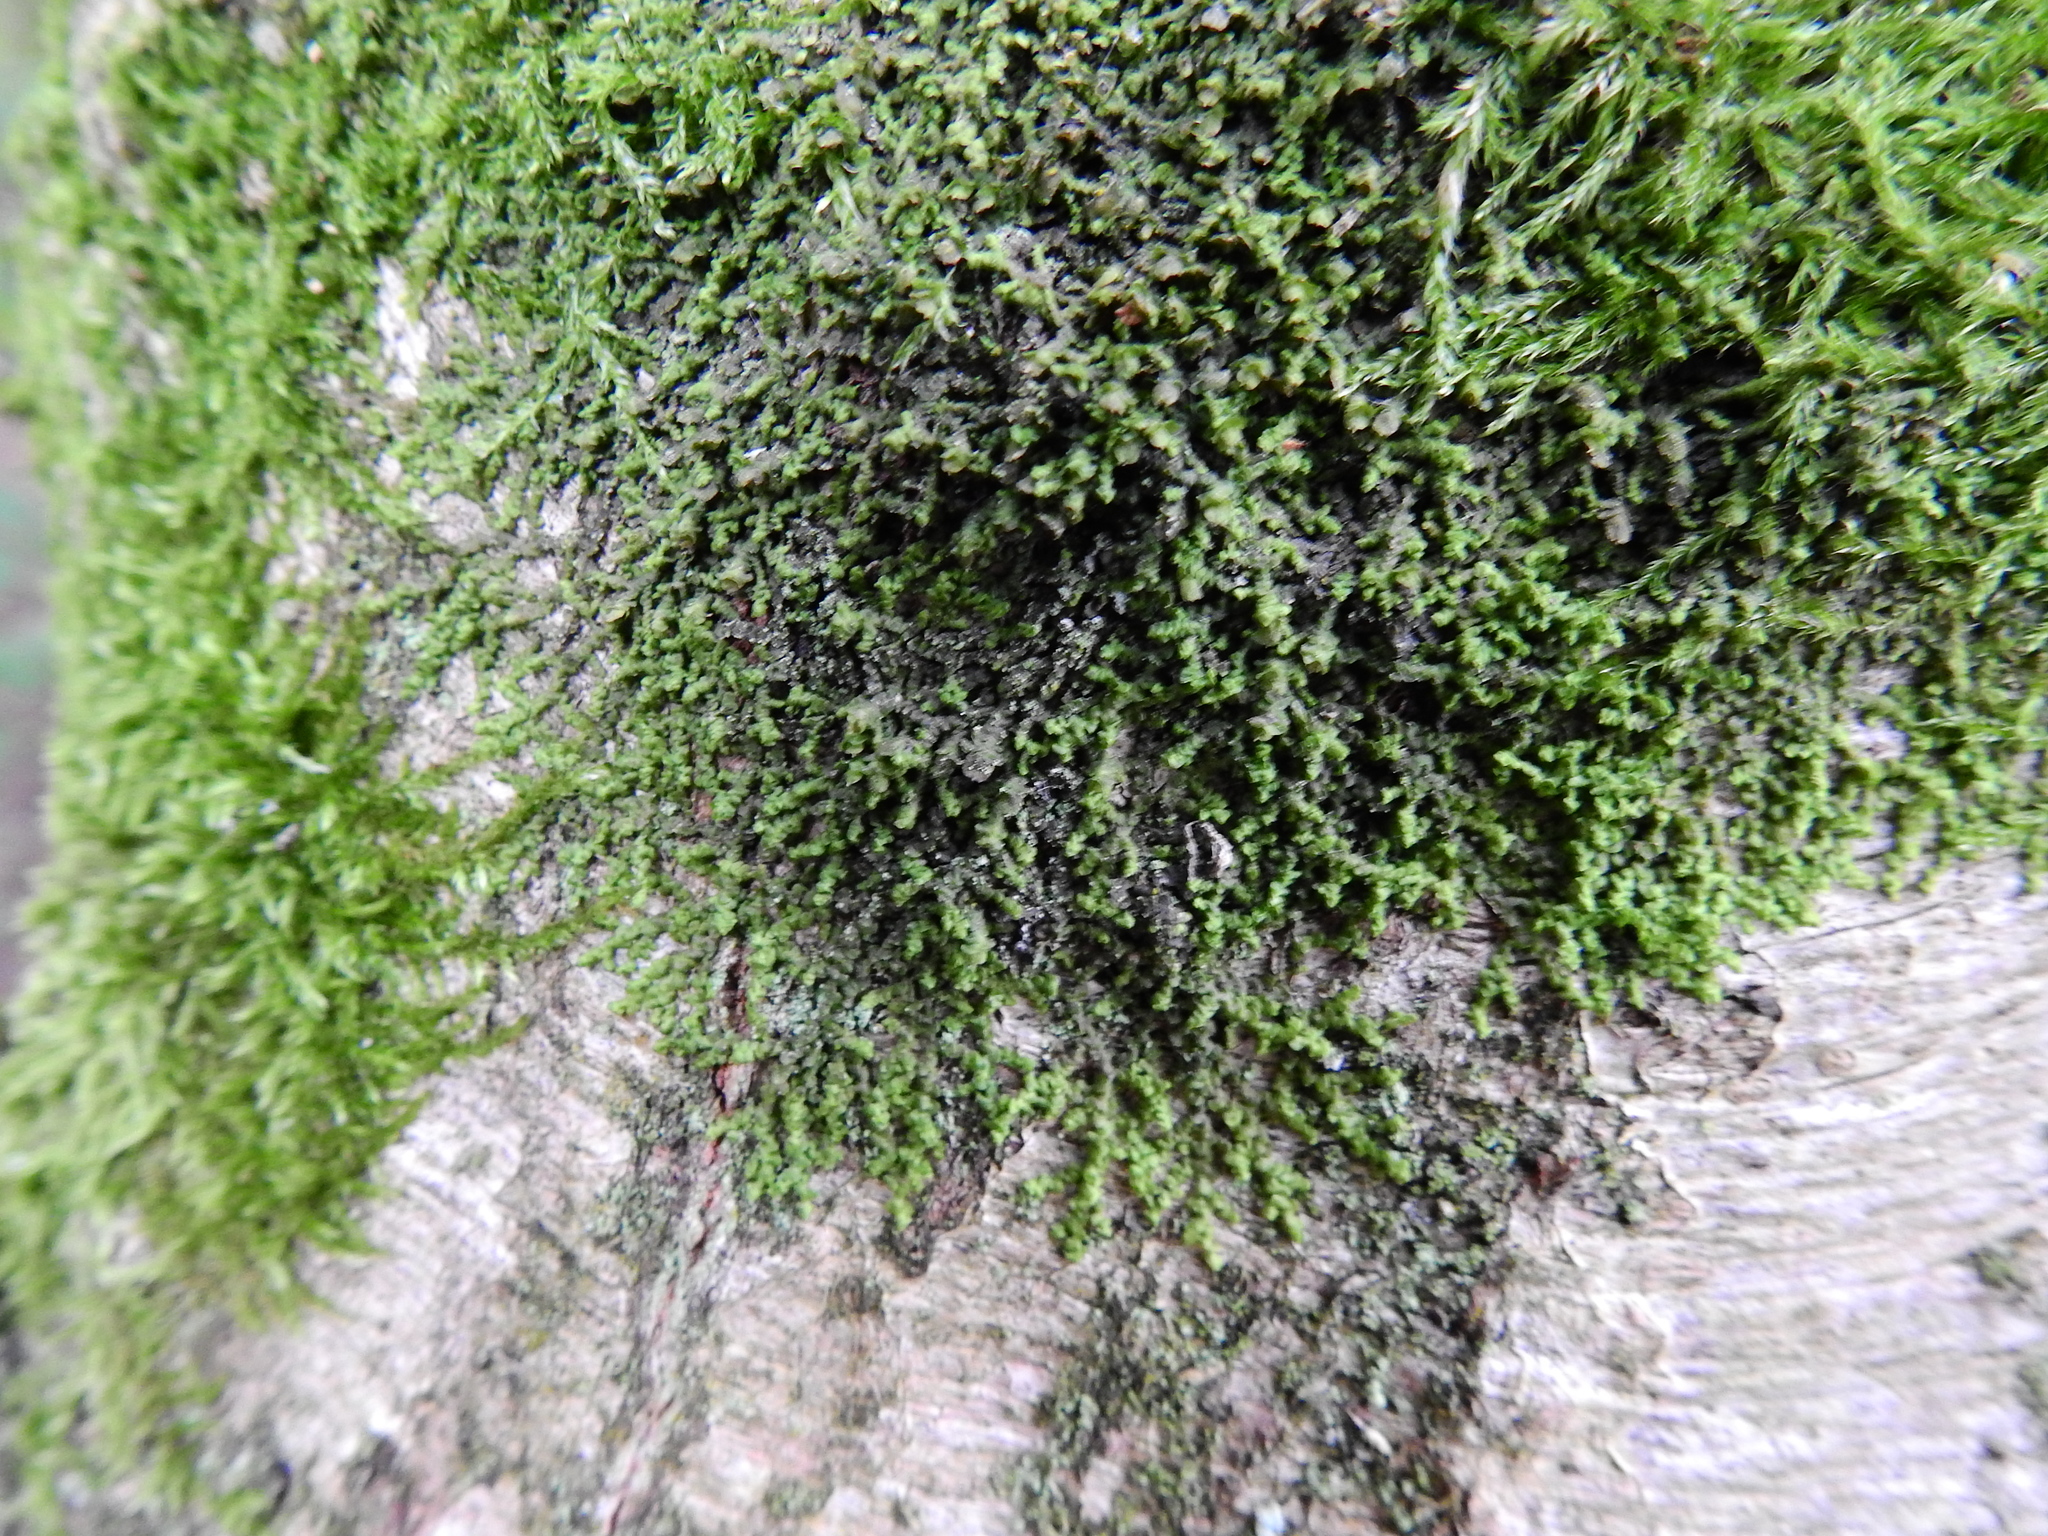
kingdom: Plantae
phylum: Marchantiophyta
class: Jungermanniopsida
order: Porellales
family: Frullaniaceae
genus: Frullania
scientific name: Frullania dilatata
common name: Dilated scalewort
